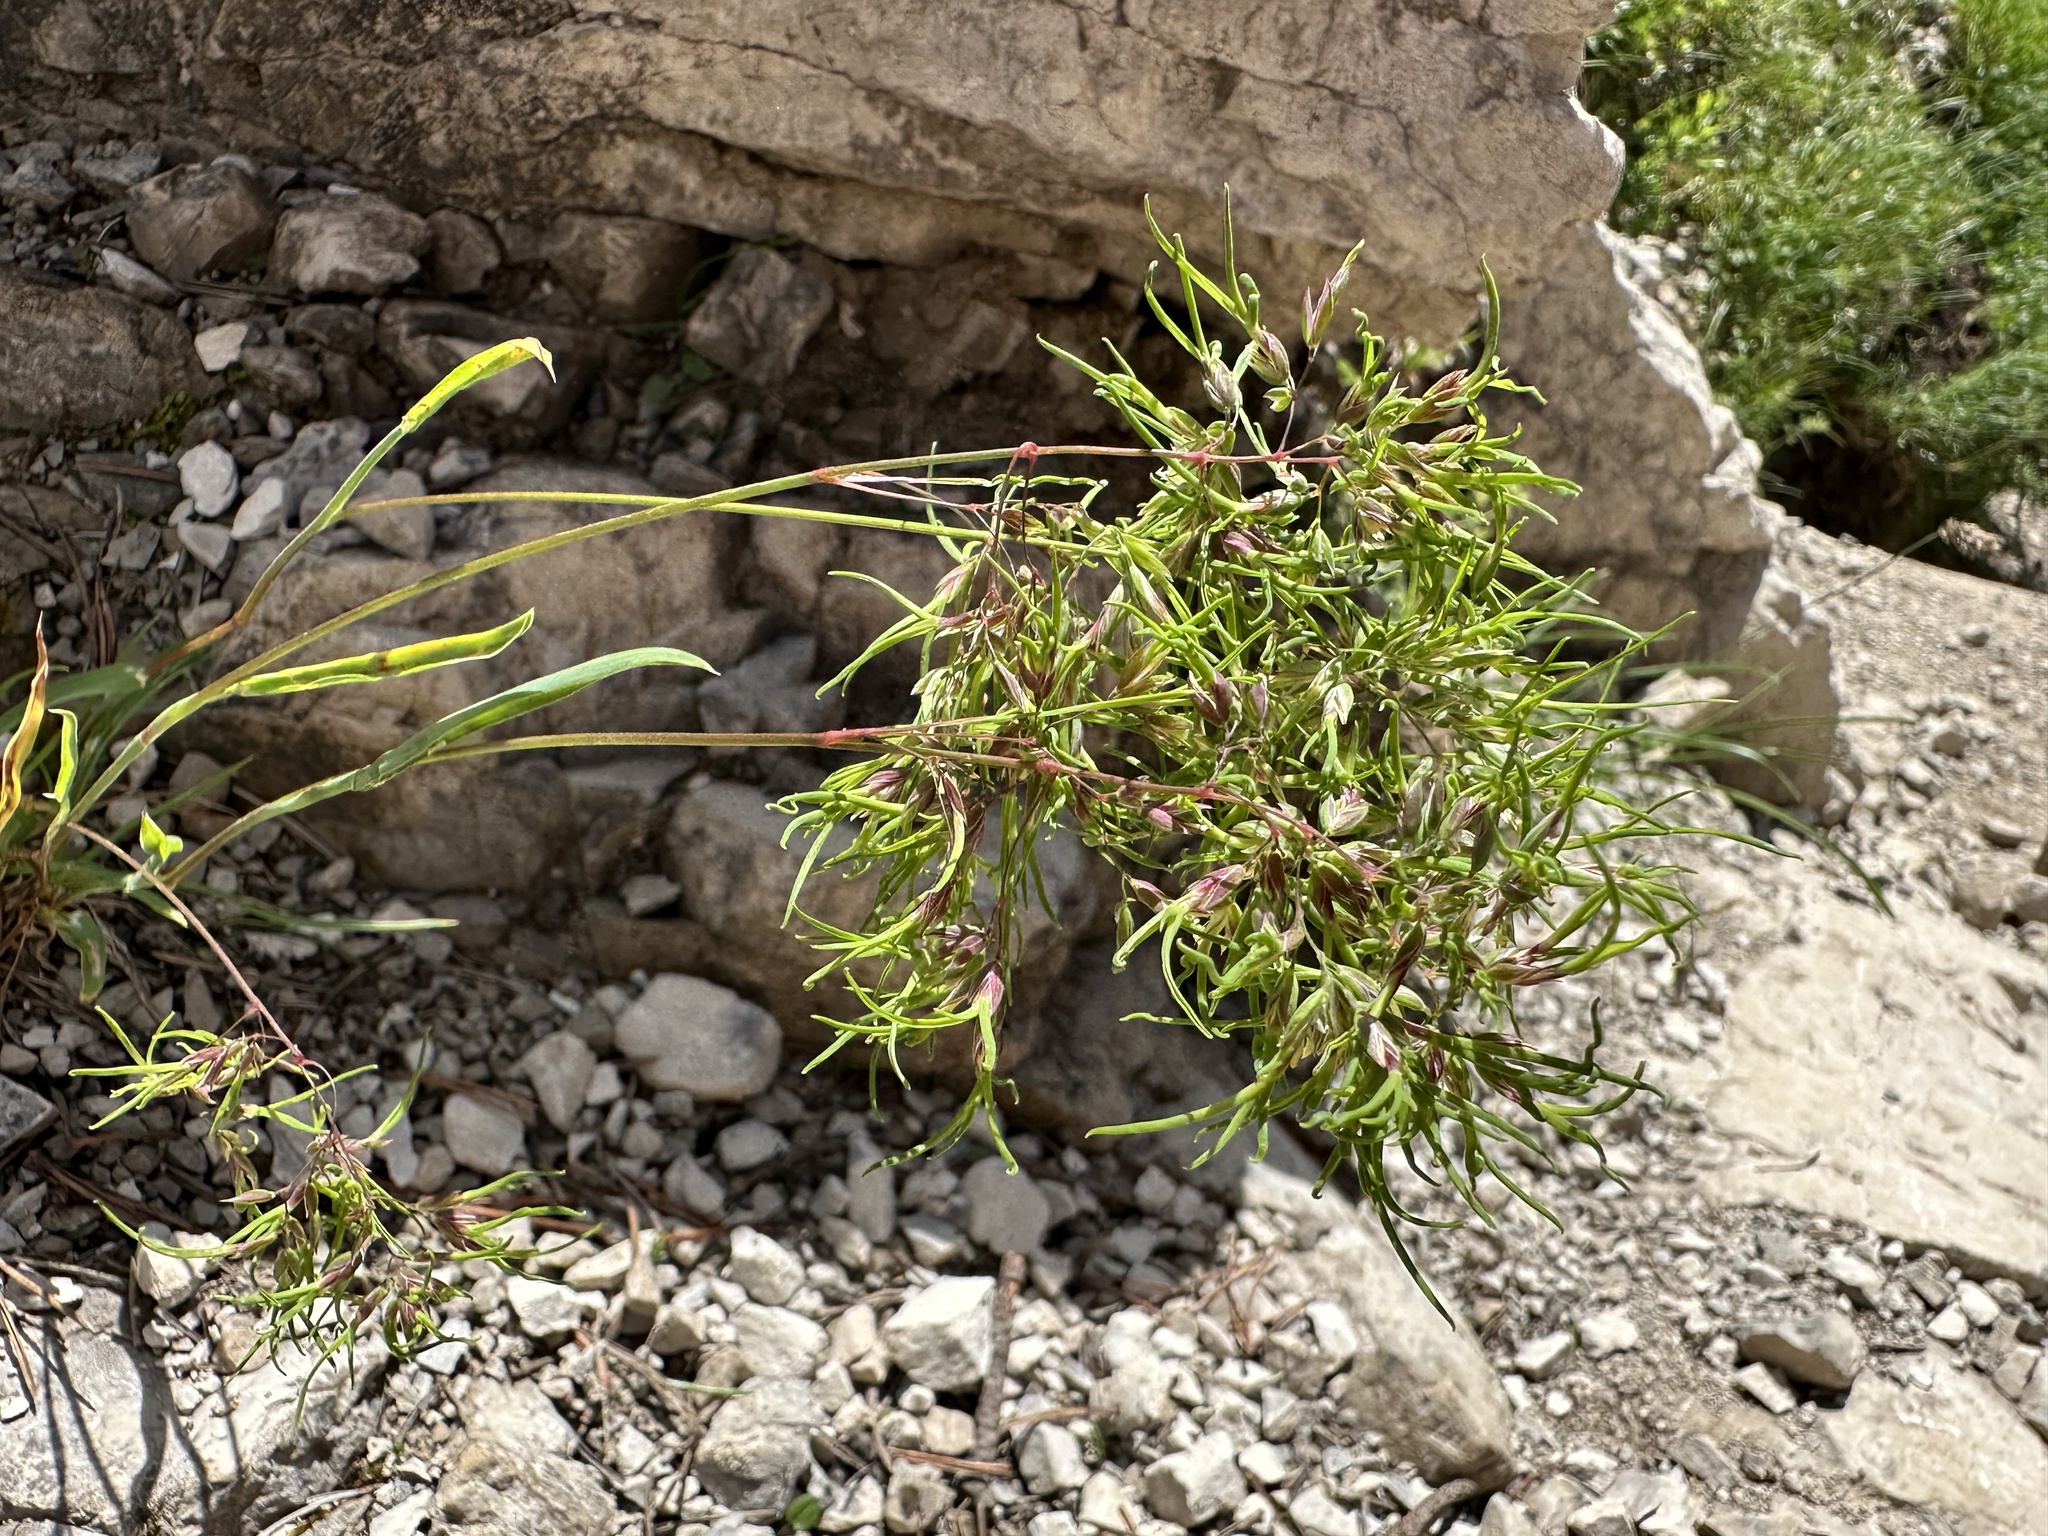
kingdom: Plantae
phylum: Tracheophyta
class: Liliopsida
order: Poales
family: Poaceae
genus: Poa
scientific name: Poa alpina
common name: Alpine bluegrass
